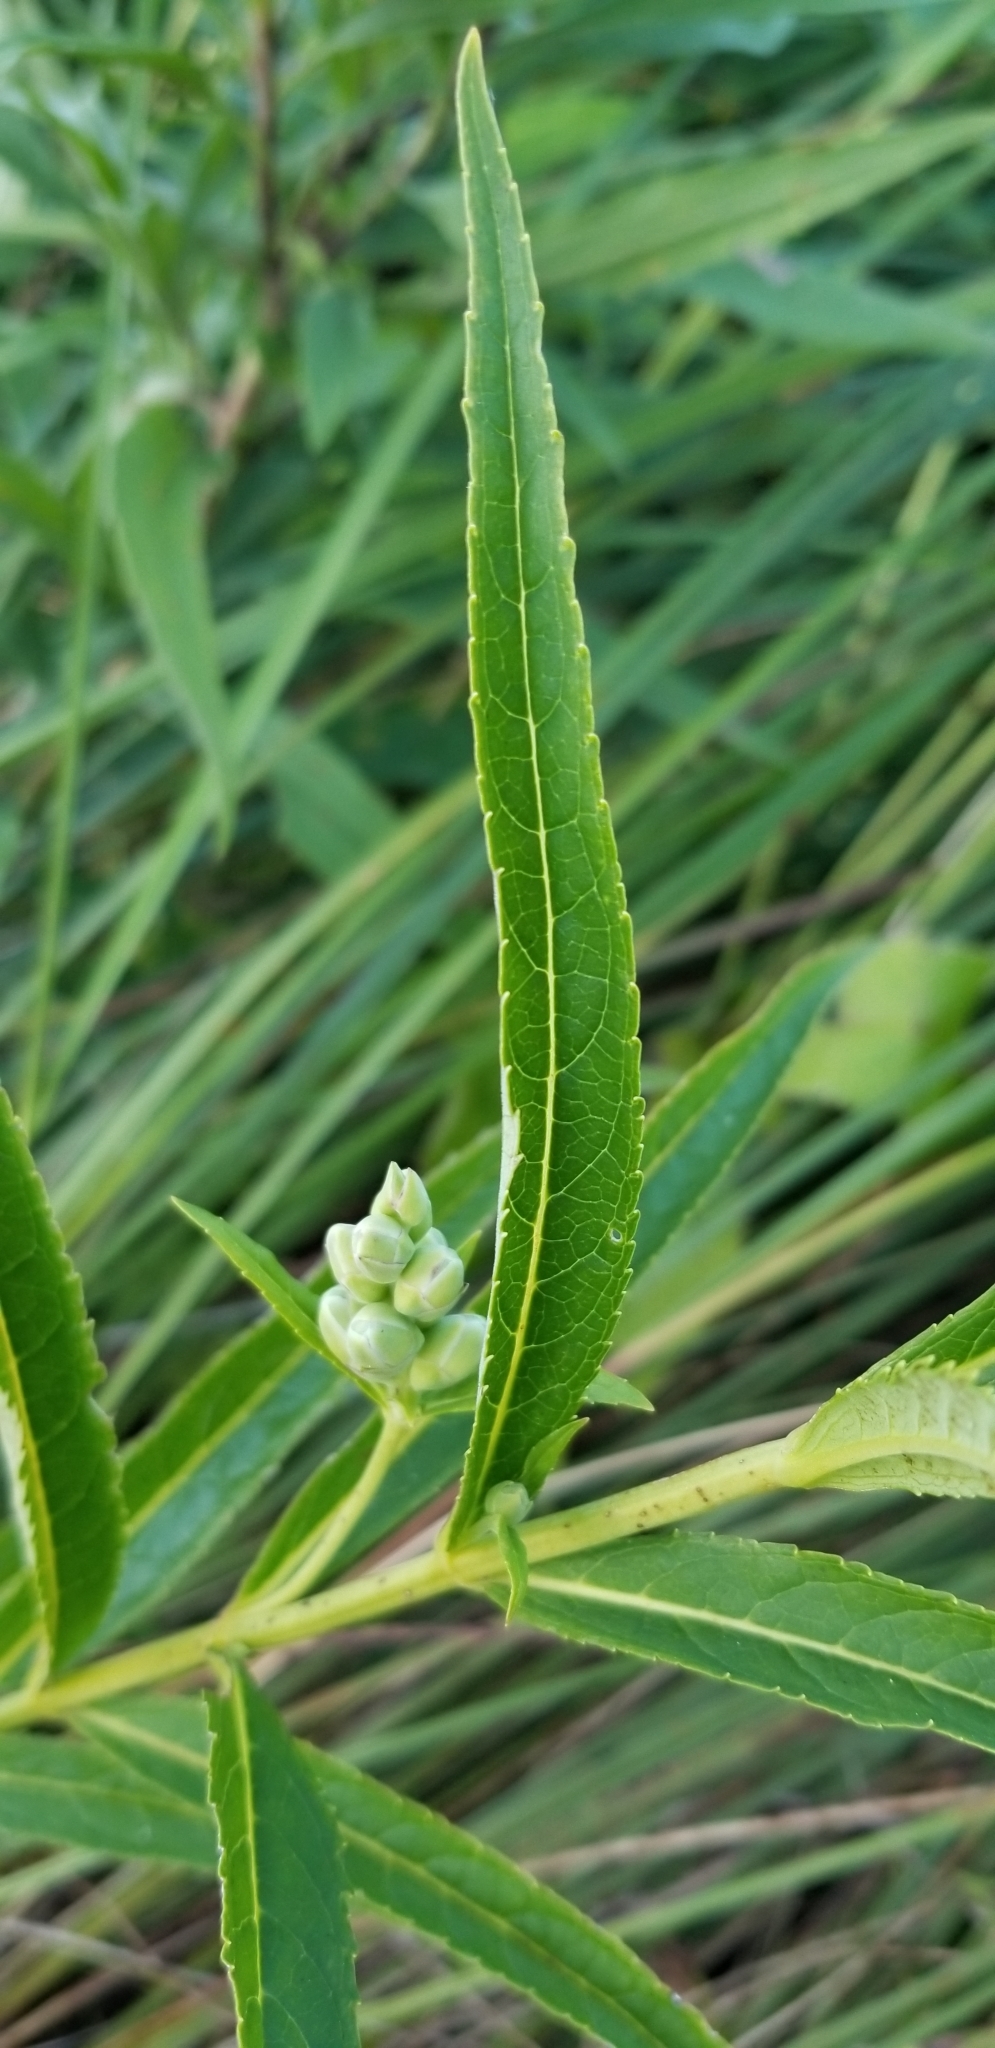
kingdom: Plantae
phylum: Tracheophyta
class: Magnoliopsida
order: Lamiales
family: Plantaginaceae
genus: Chelone
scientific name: Chelone glabra
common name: Snakehead
